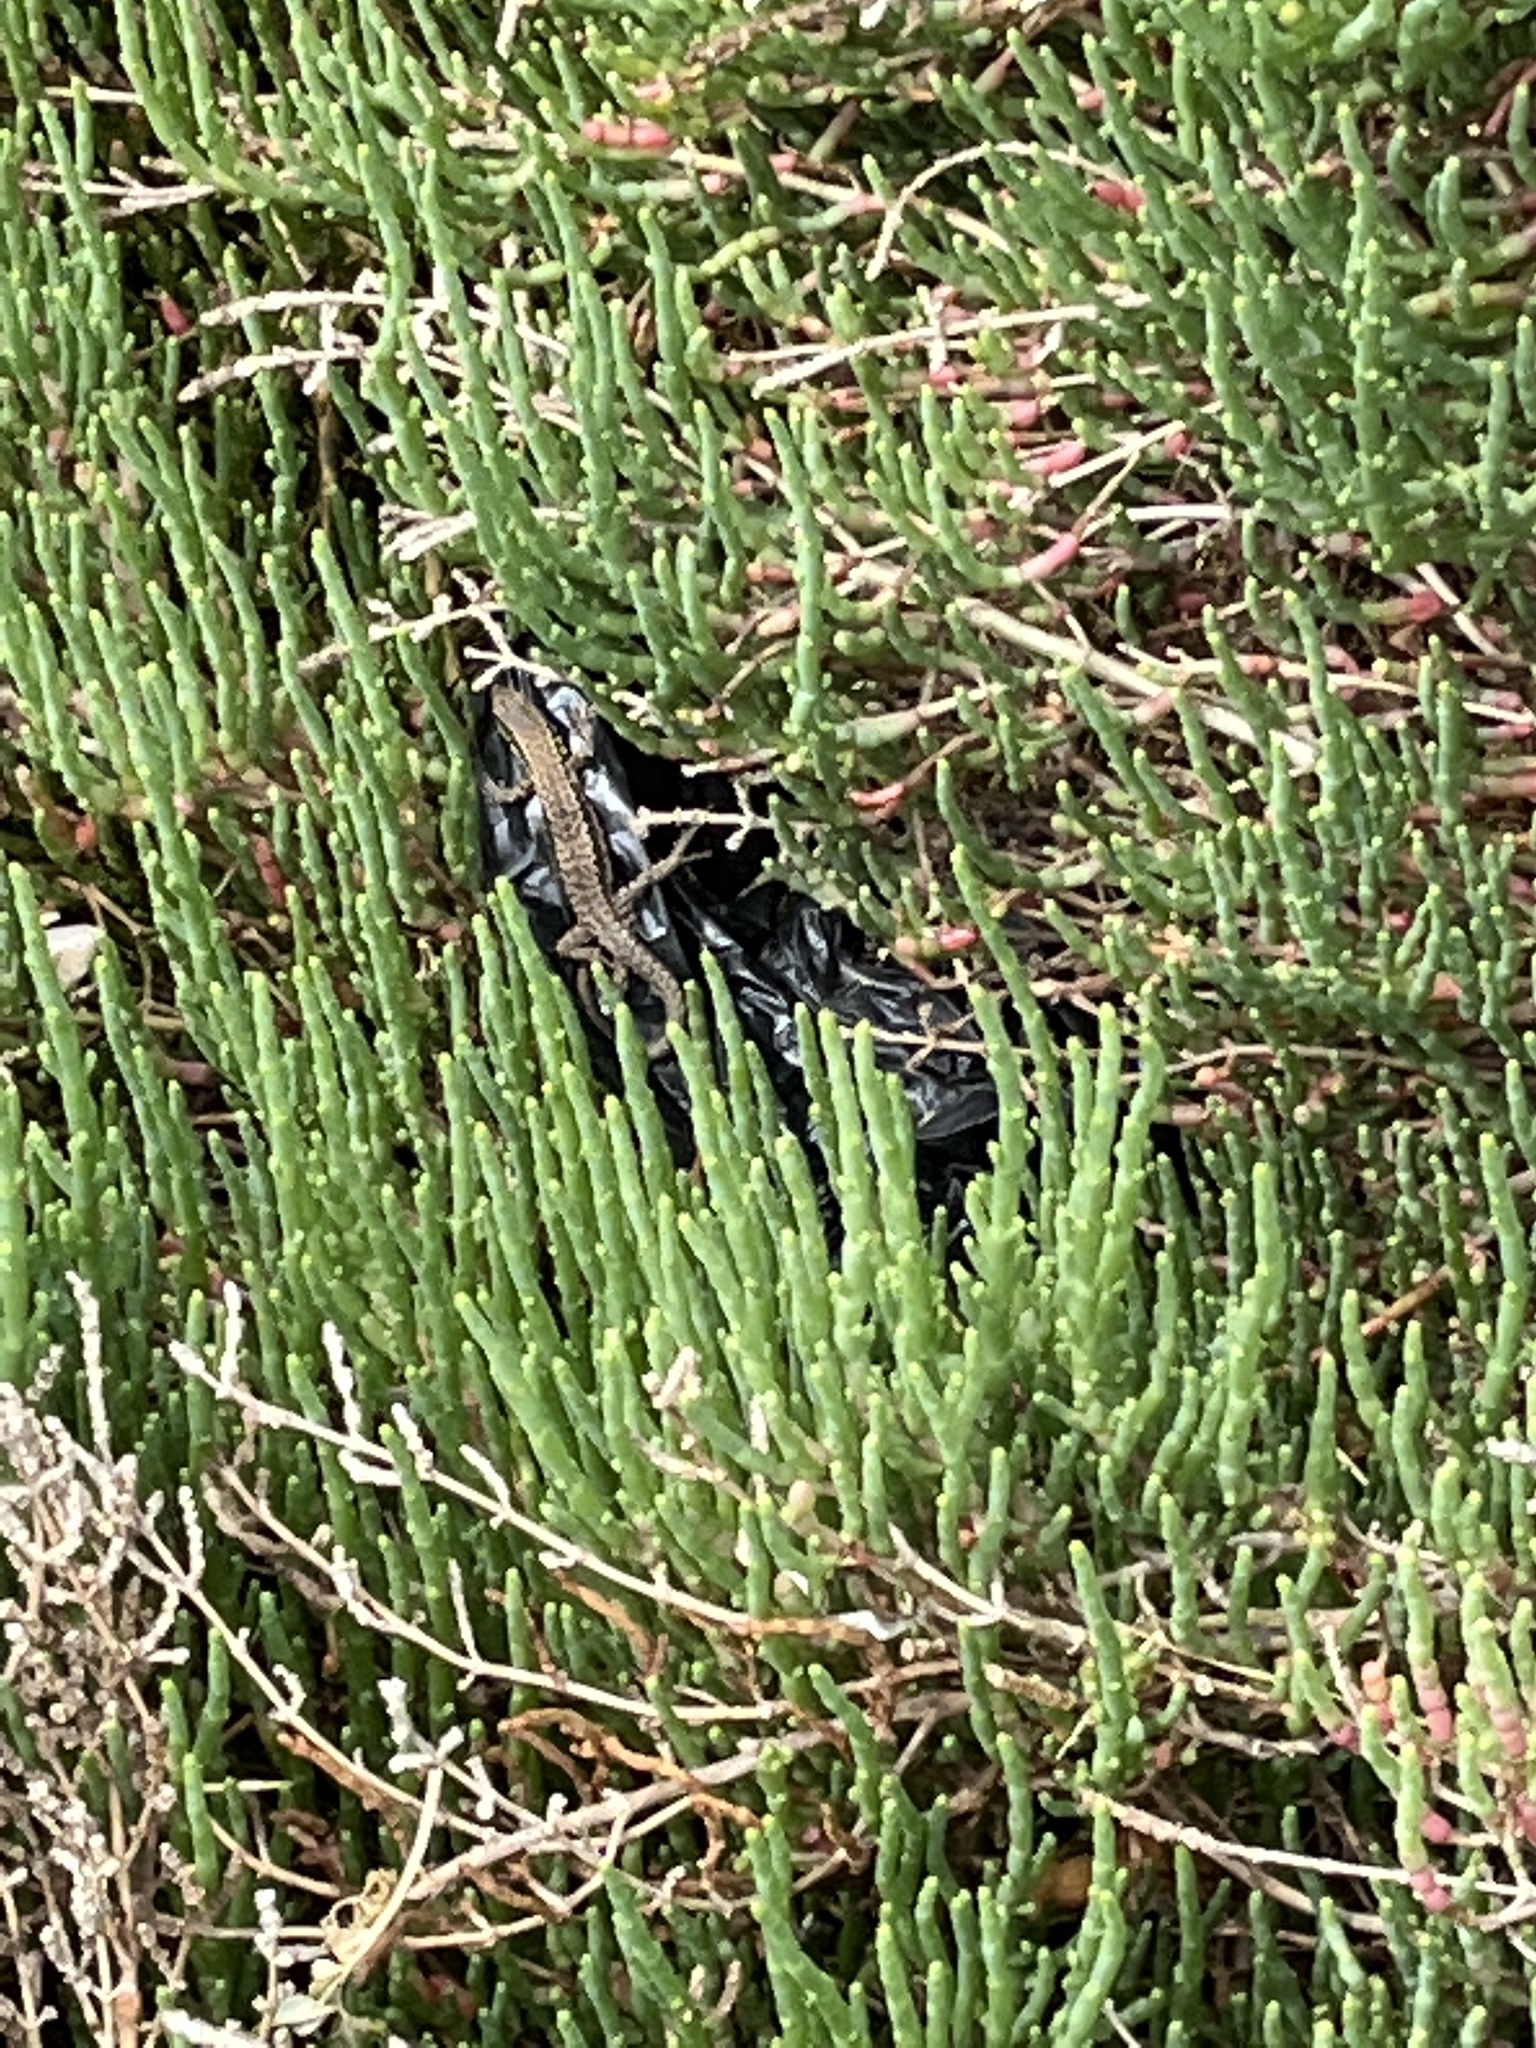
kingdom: Animalia
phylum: Chordata
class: Squamata
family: Lacertidae
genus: Podarcis
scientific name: Podarcis muralis
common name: Common wall lizard
